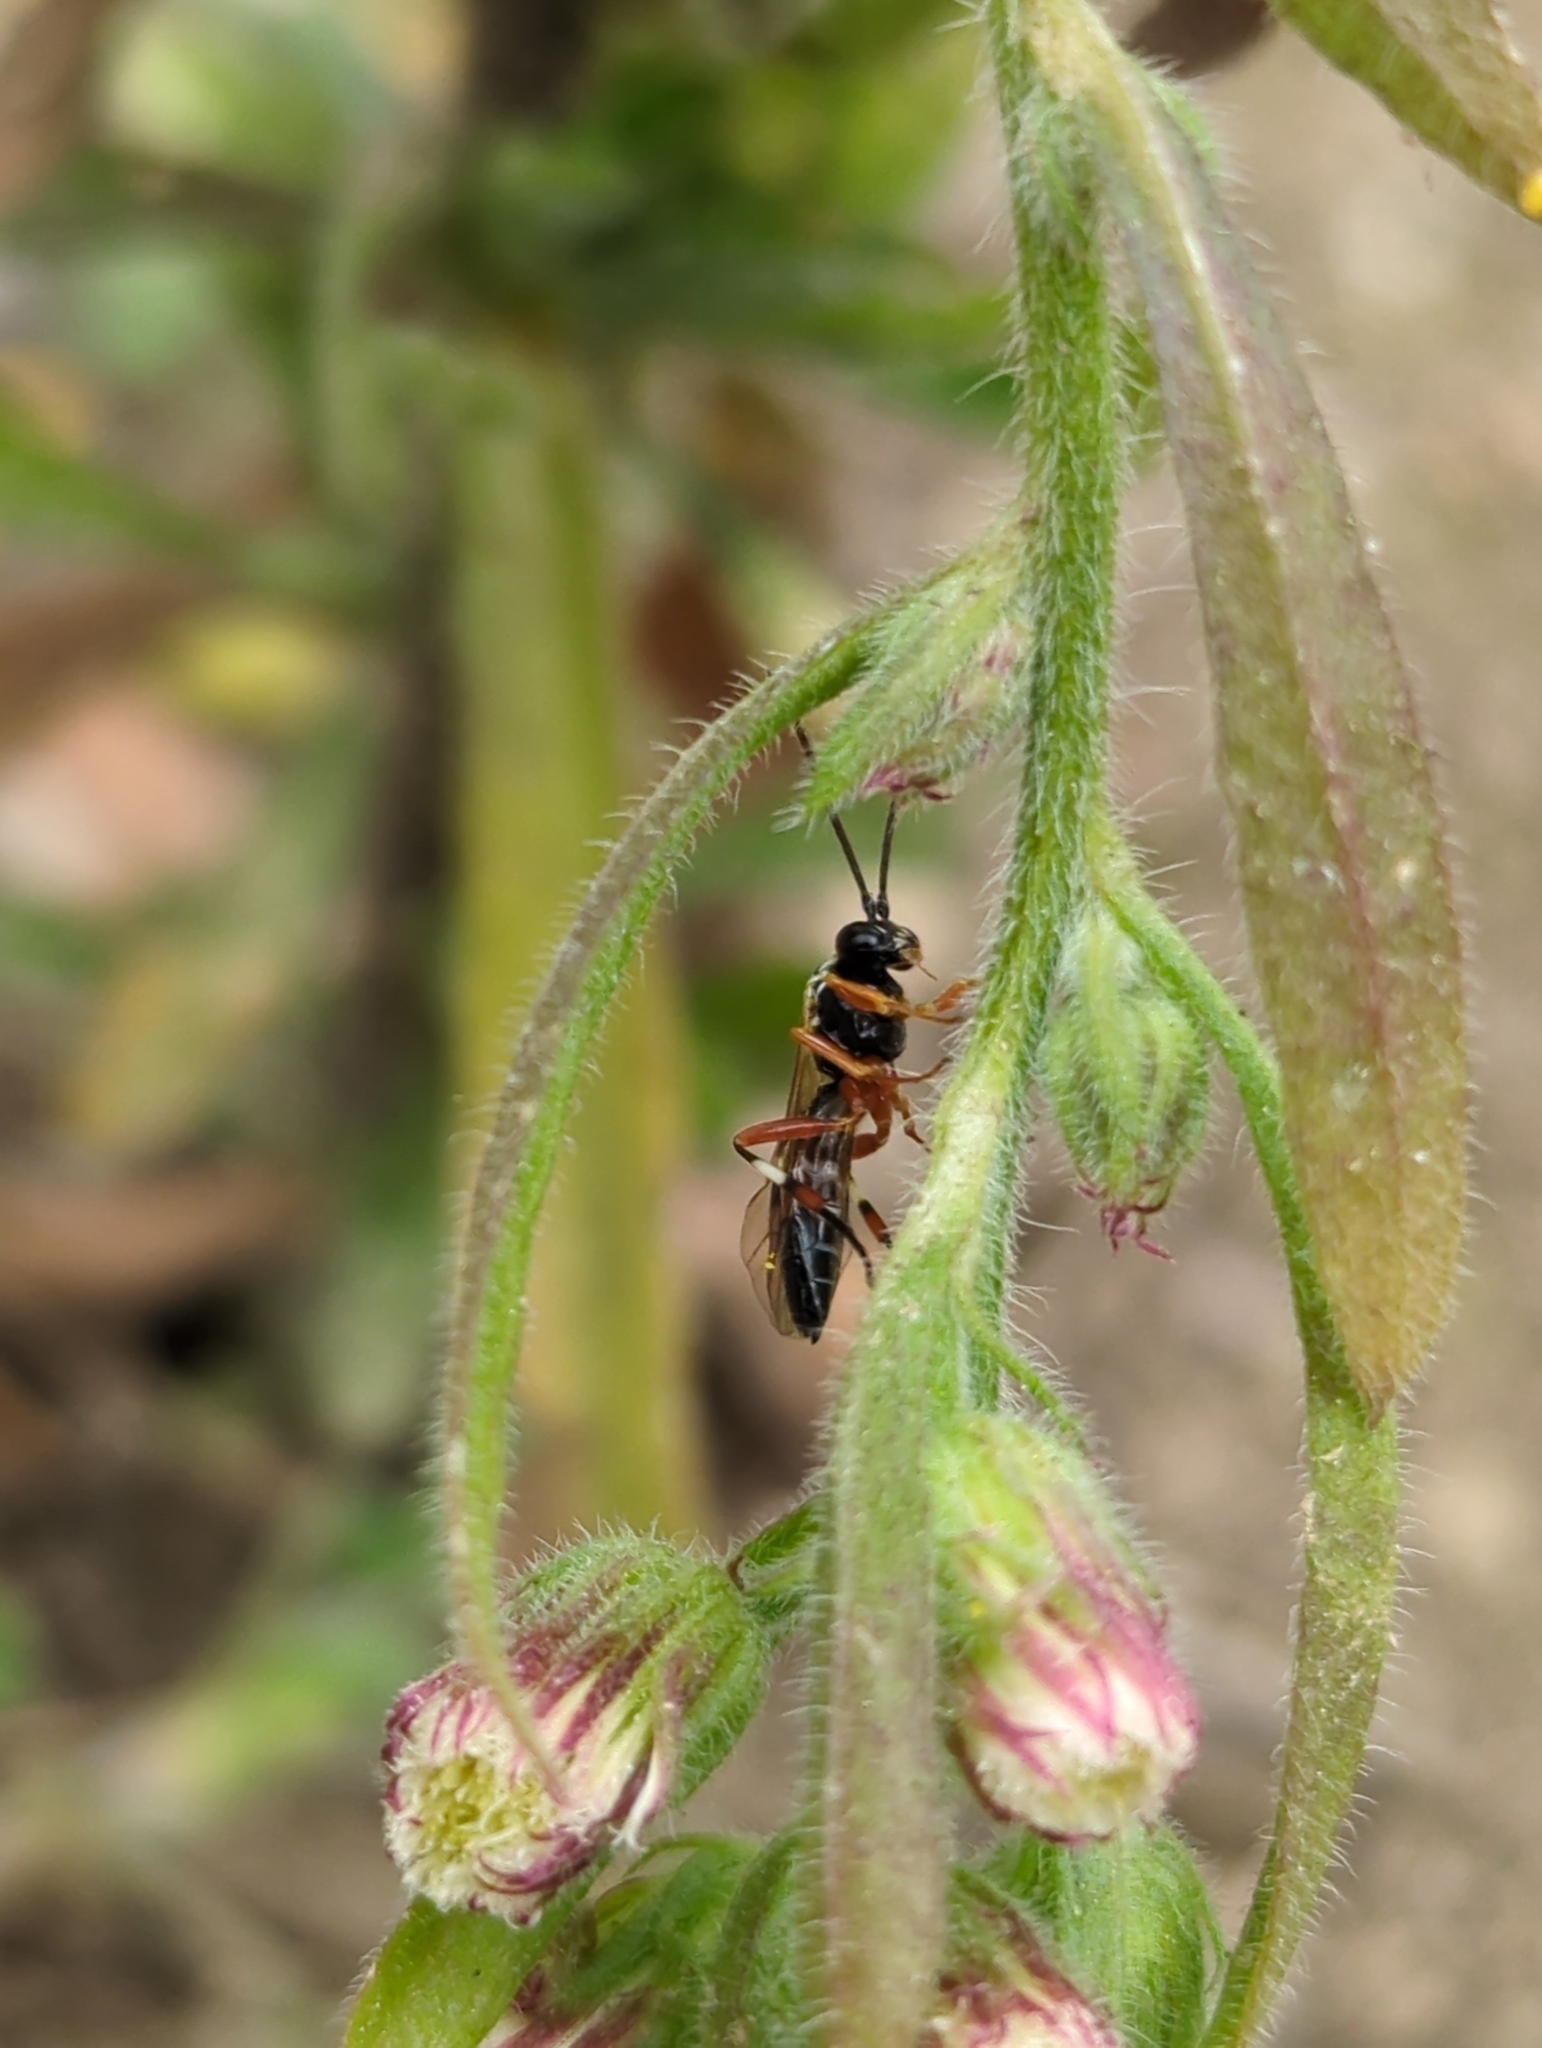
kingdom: Animalia
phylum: Arthropoda
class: Insecta
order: Hymenoptera
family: Ichneumonidae
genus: Diplazon
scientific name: Diplazon laetatorius
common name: Parasitoid wasp
